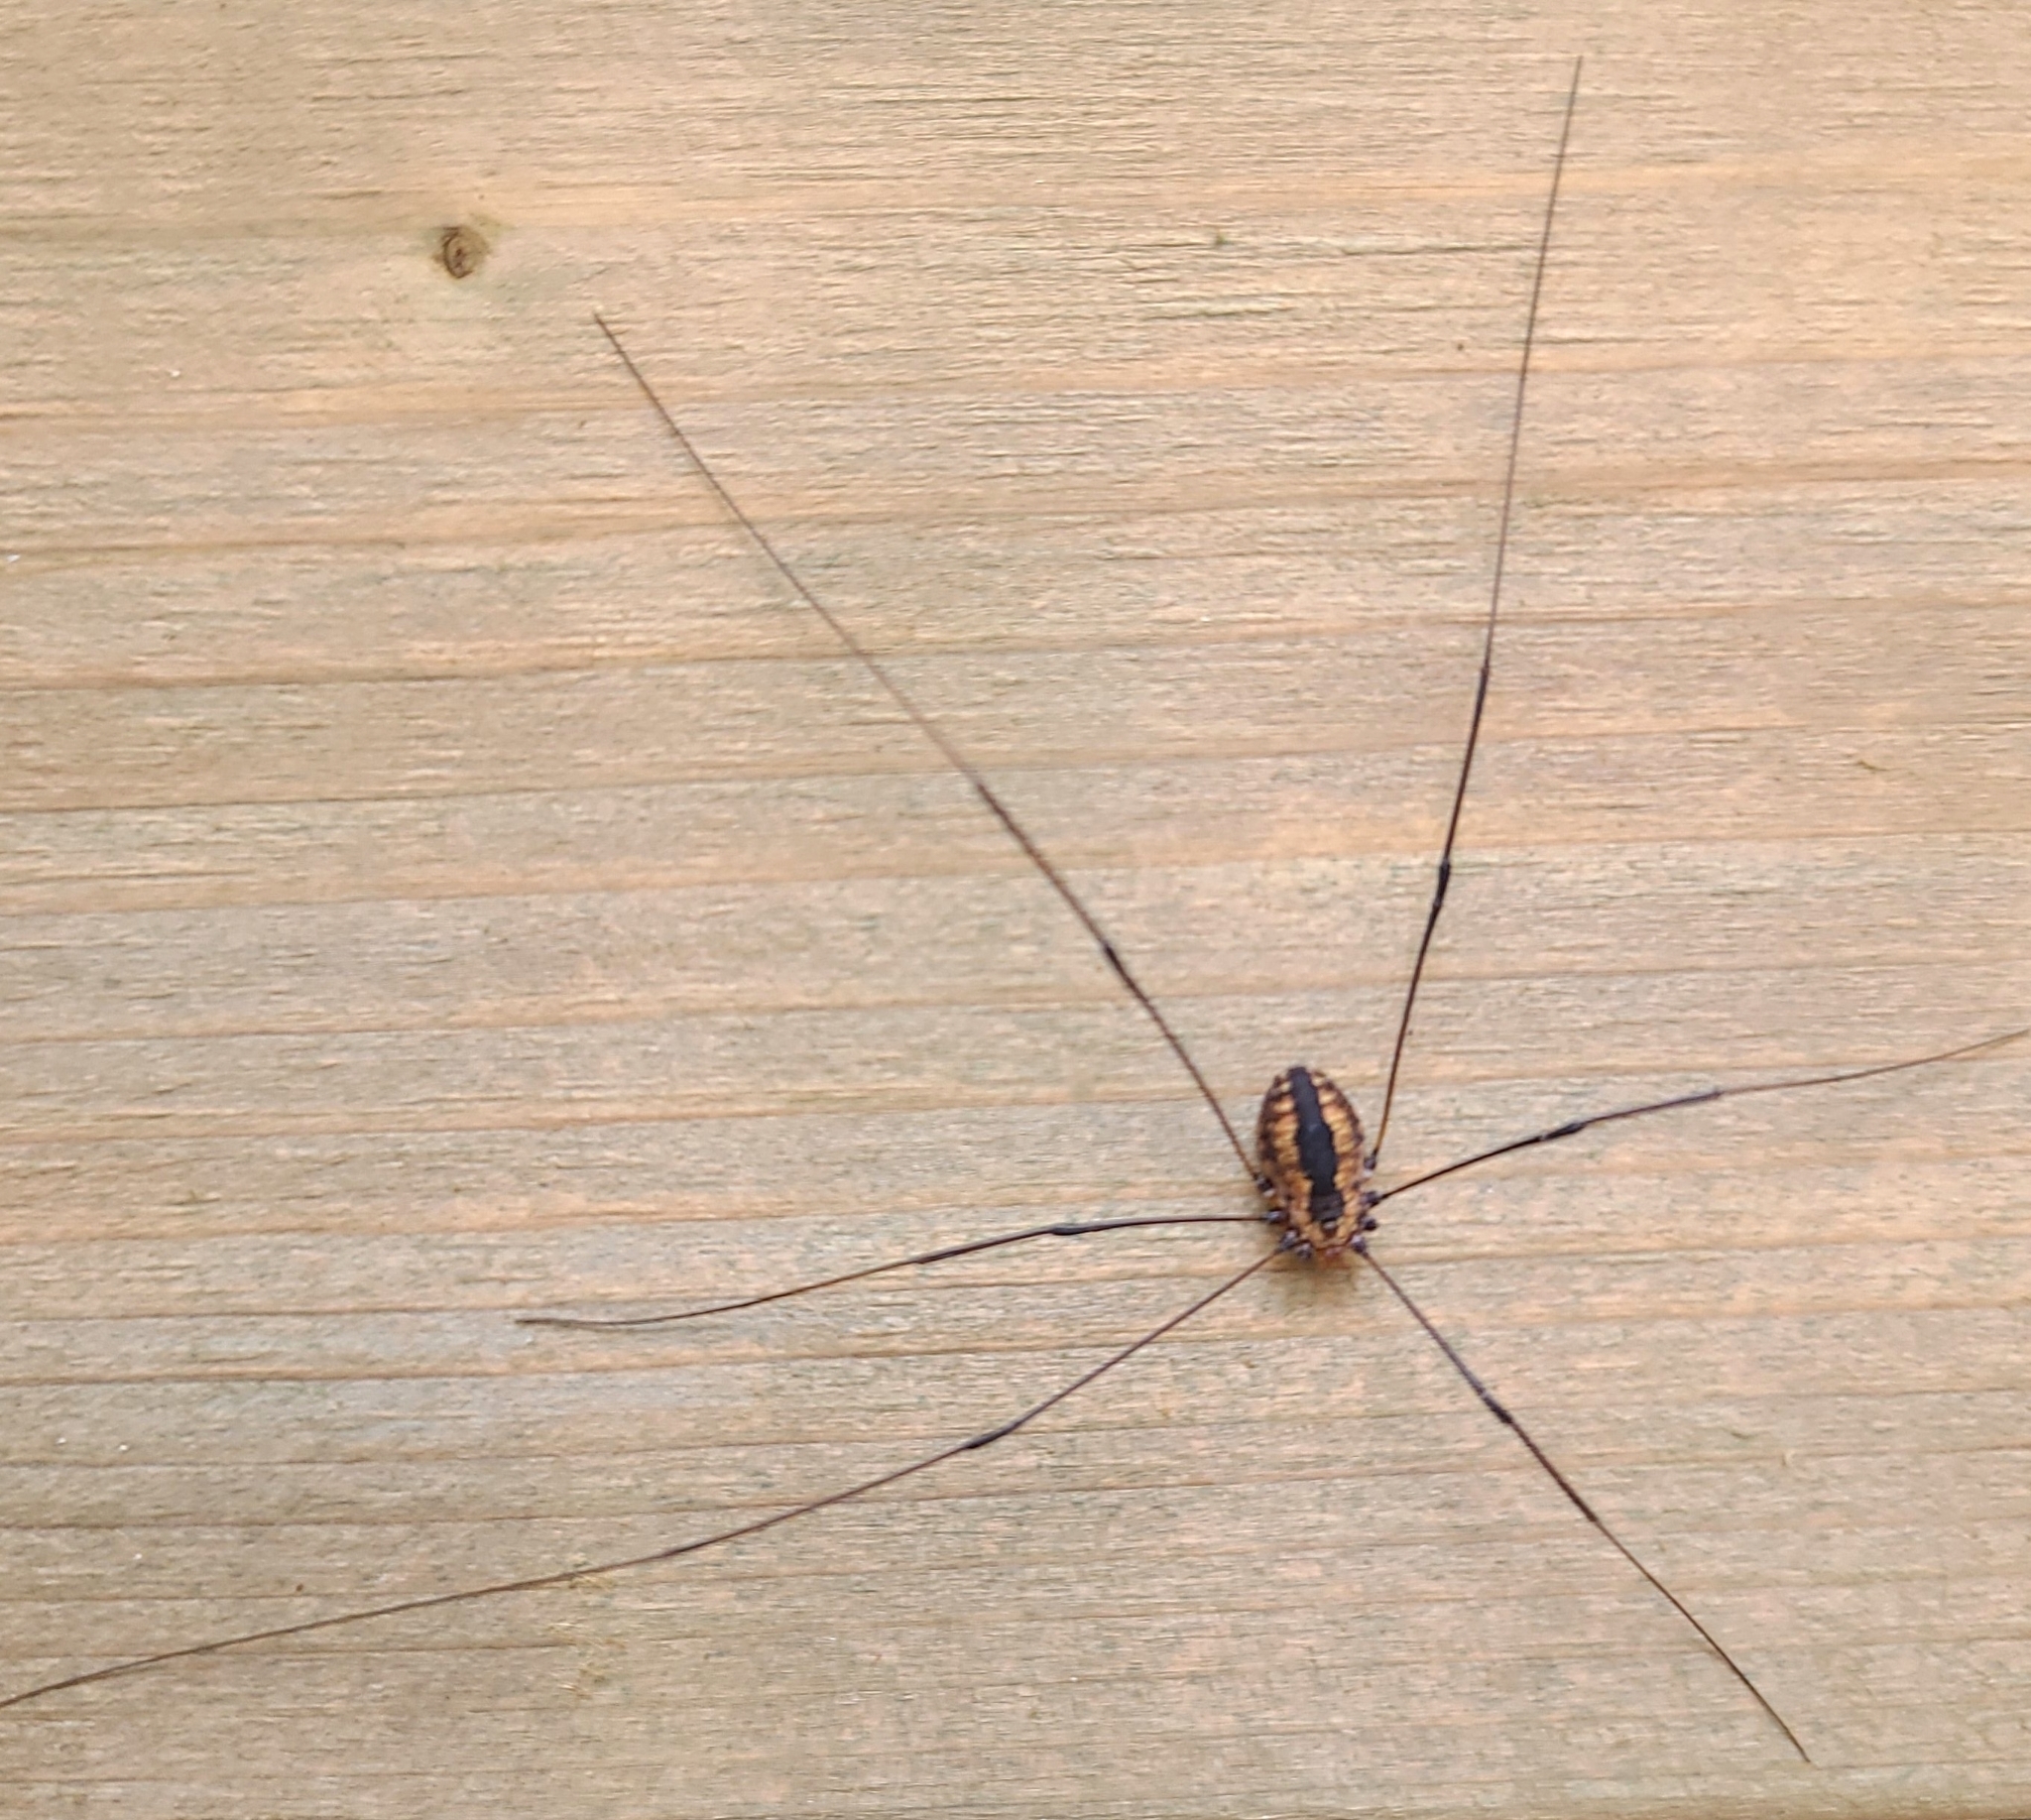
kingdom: Animalia
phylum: Arthropoda
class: Arachnida
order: Opiliones
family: Sclerosomatidae
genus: Leiobunum
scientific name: Leiobunum vittatum
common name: Eastern harvestman
